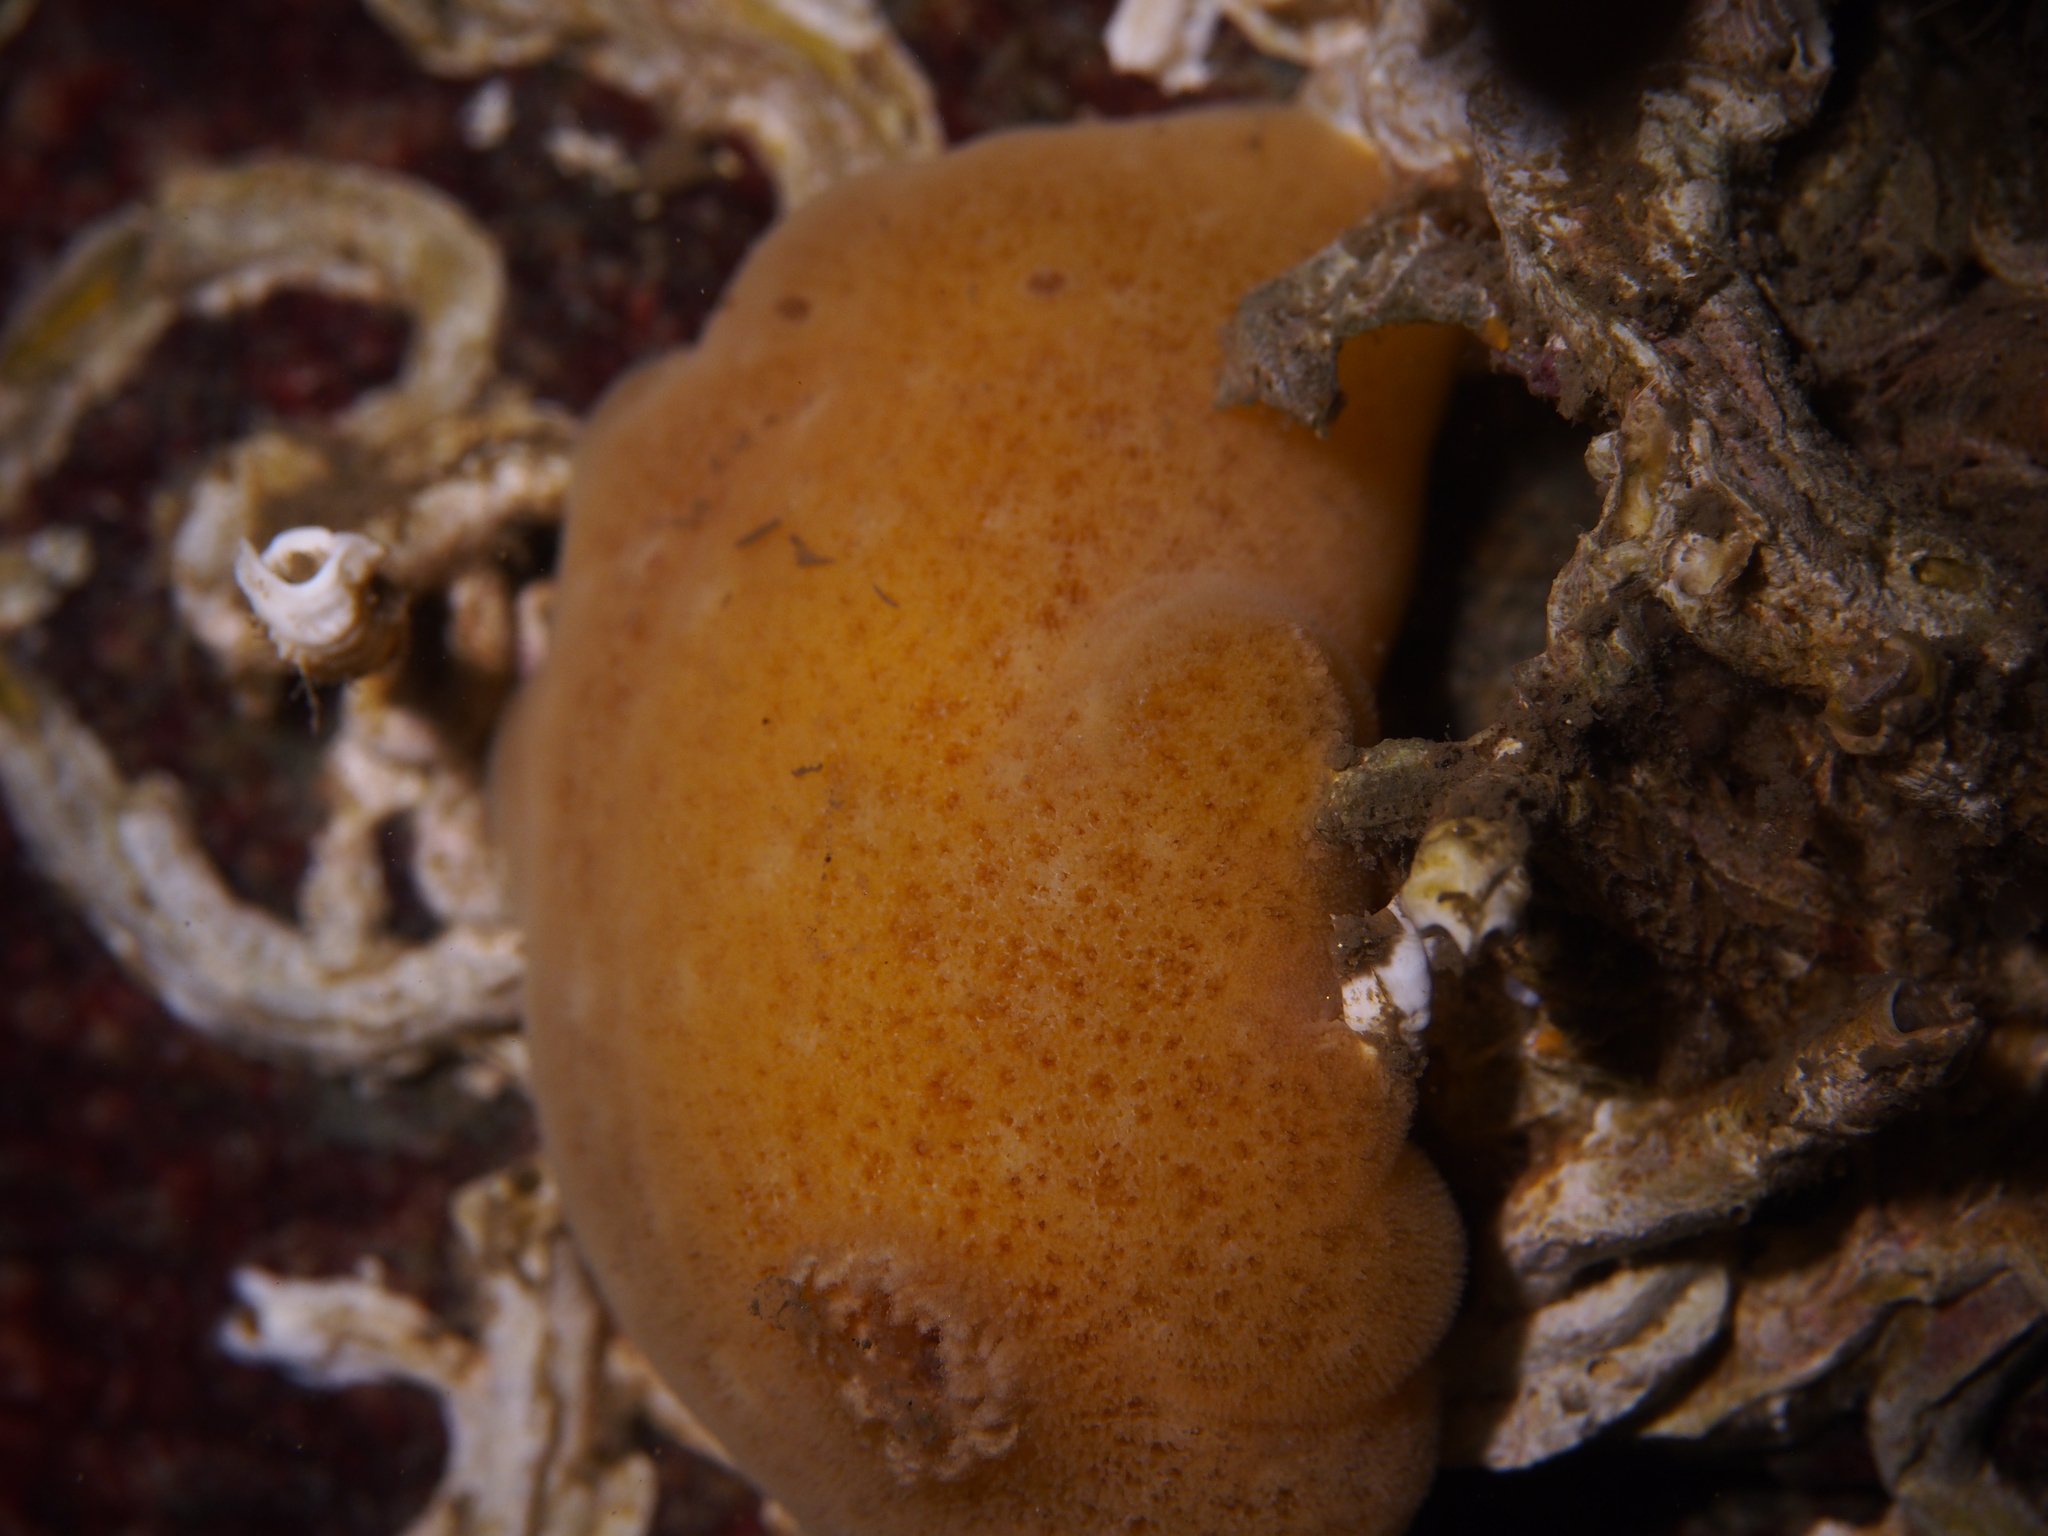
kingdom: Animalia
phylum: Mollusca
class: Gastropoda
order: Nudibranchia
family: Discodorididae
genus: Jorunna
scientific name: Jorunna tomentosa
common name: Grey sea slug
